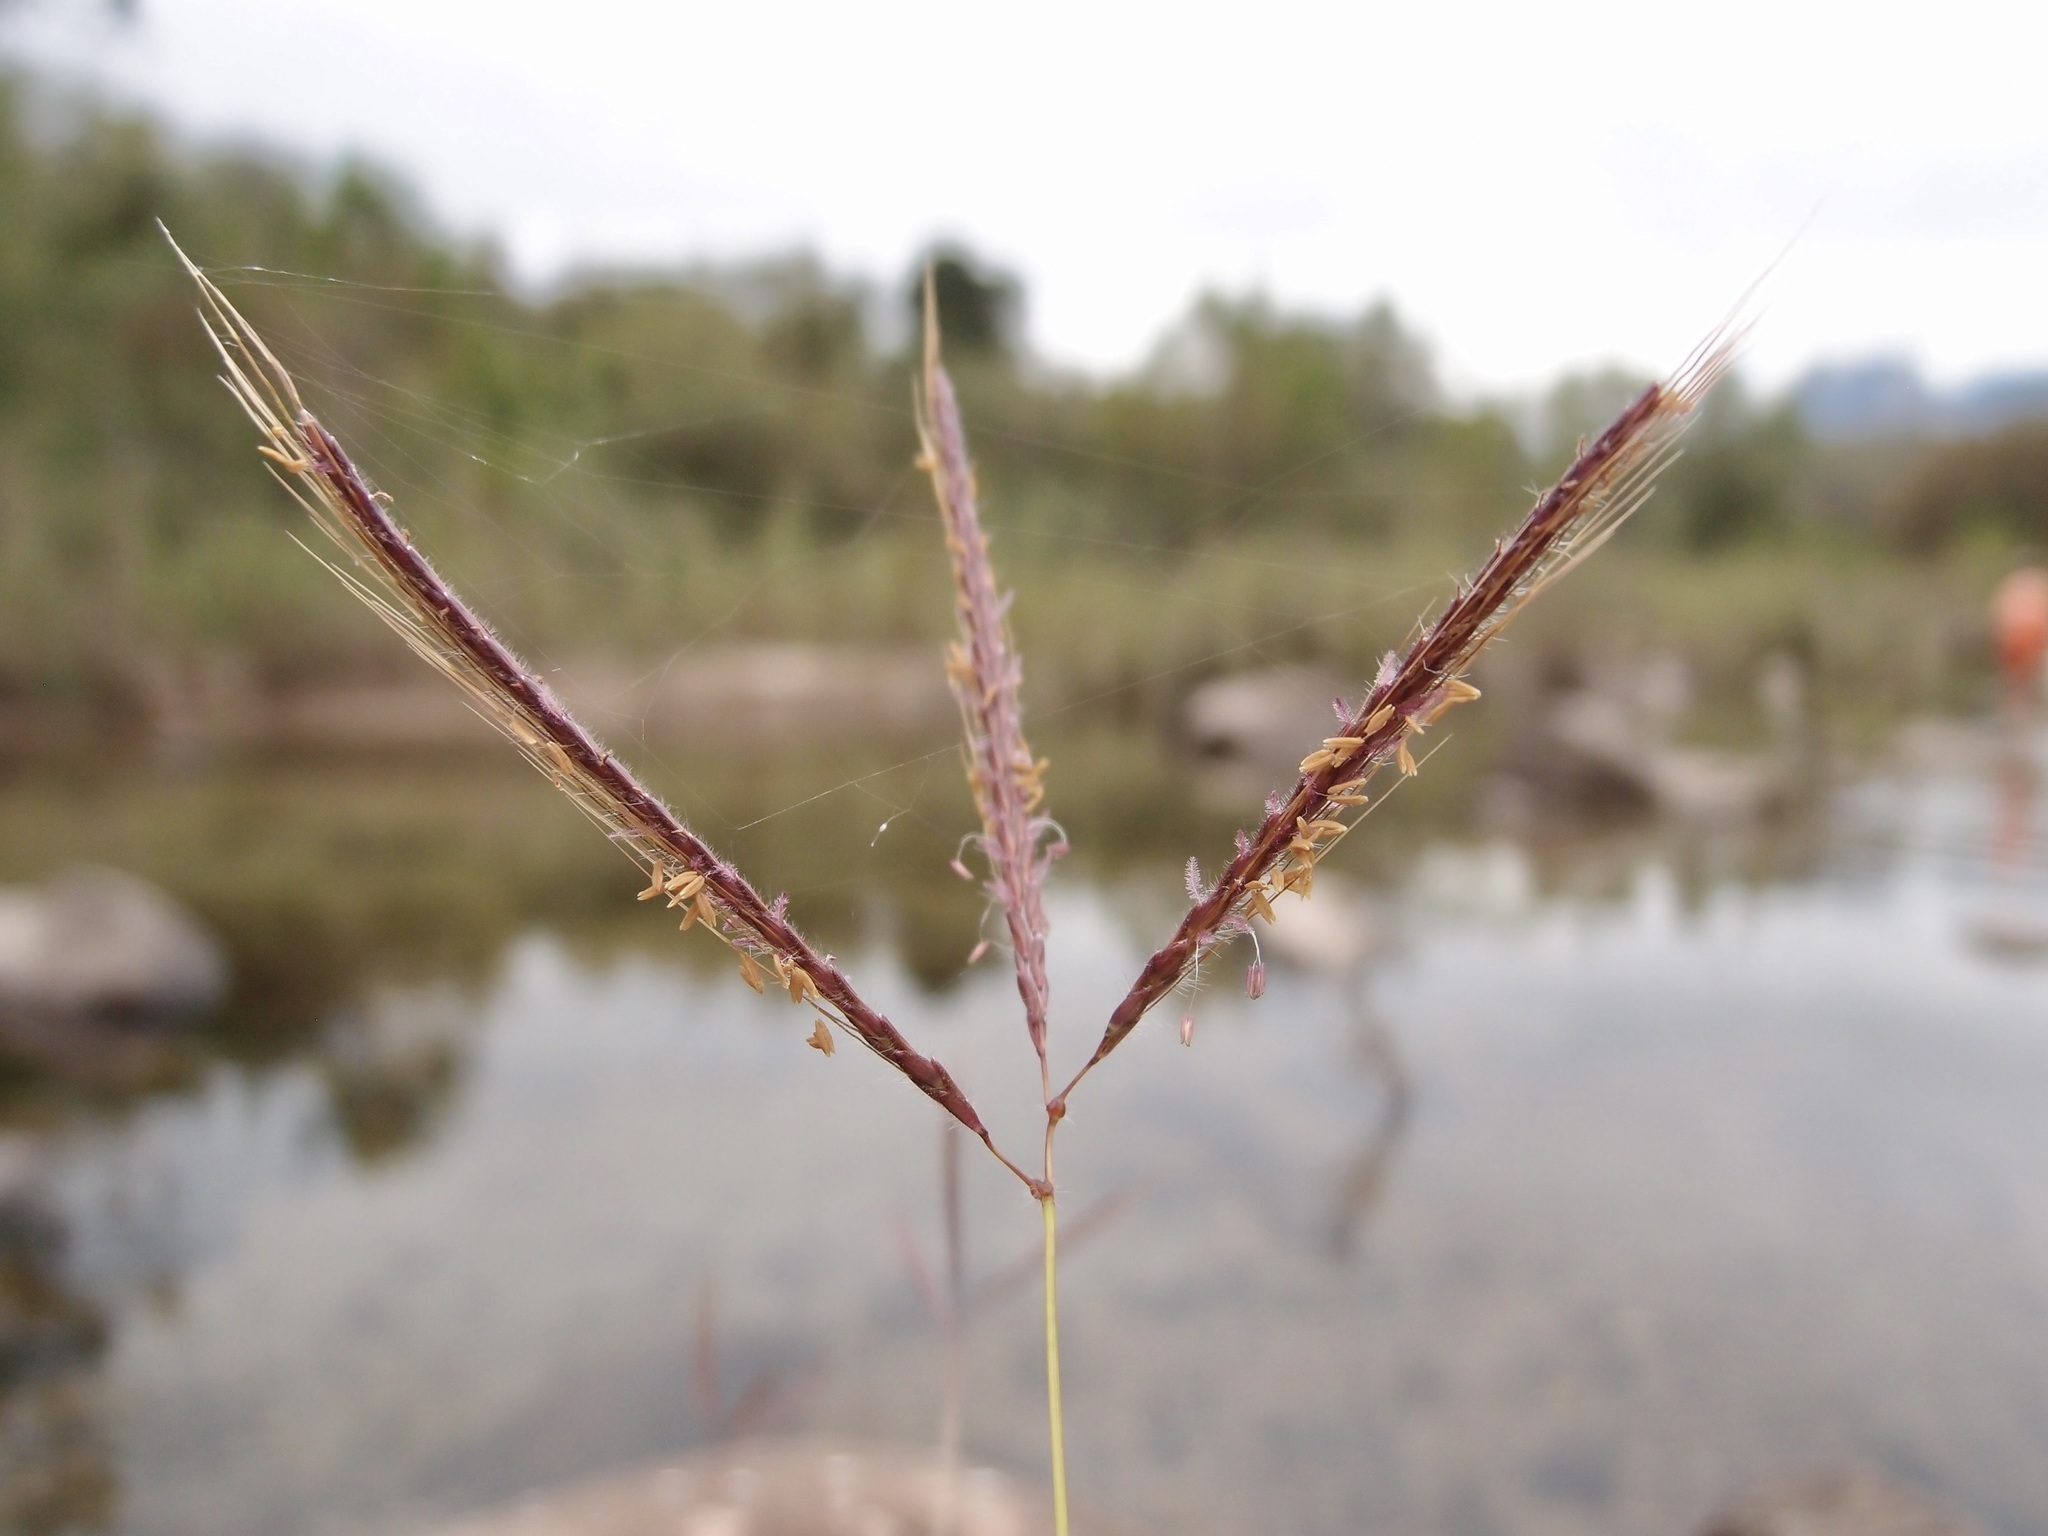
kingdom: Plantae
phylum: Tracheophyta
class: Liliopsida
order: Poales
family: Poaceae
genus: Dichanthium
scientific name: Dichanthium annulatum
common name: Kleberg's bluestem
